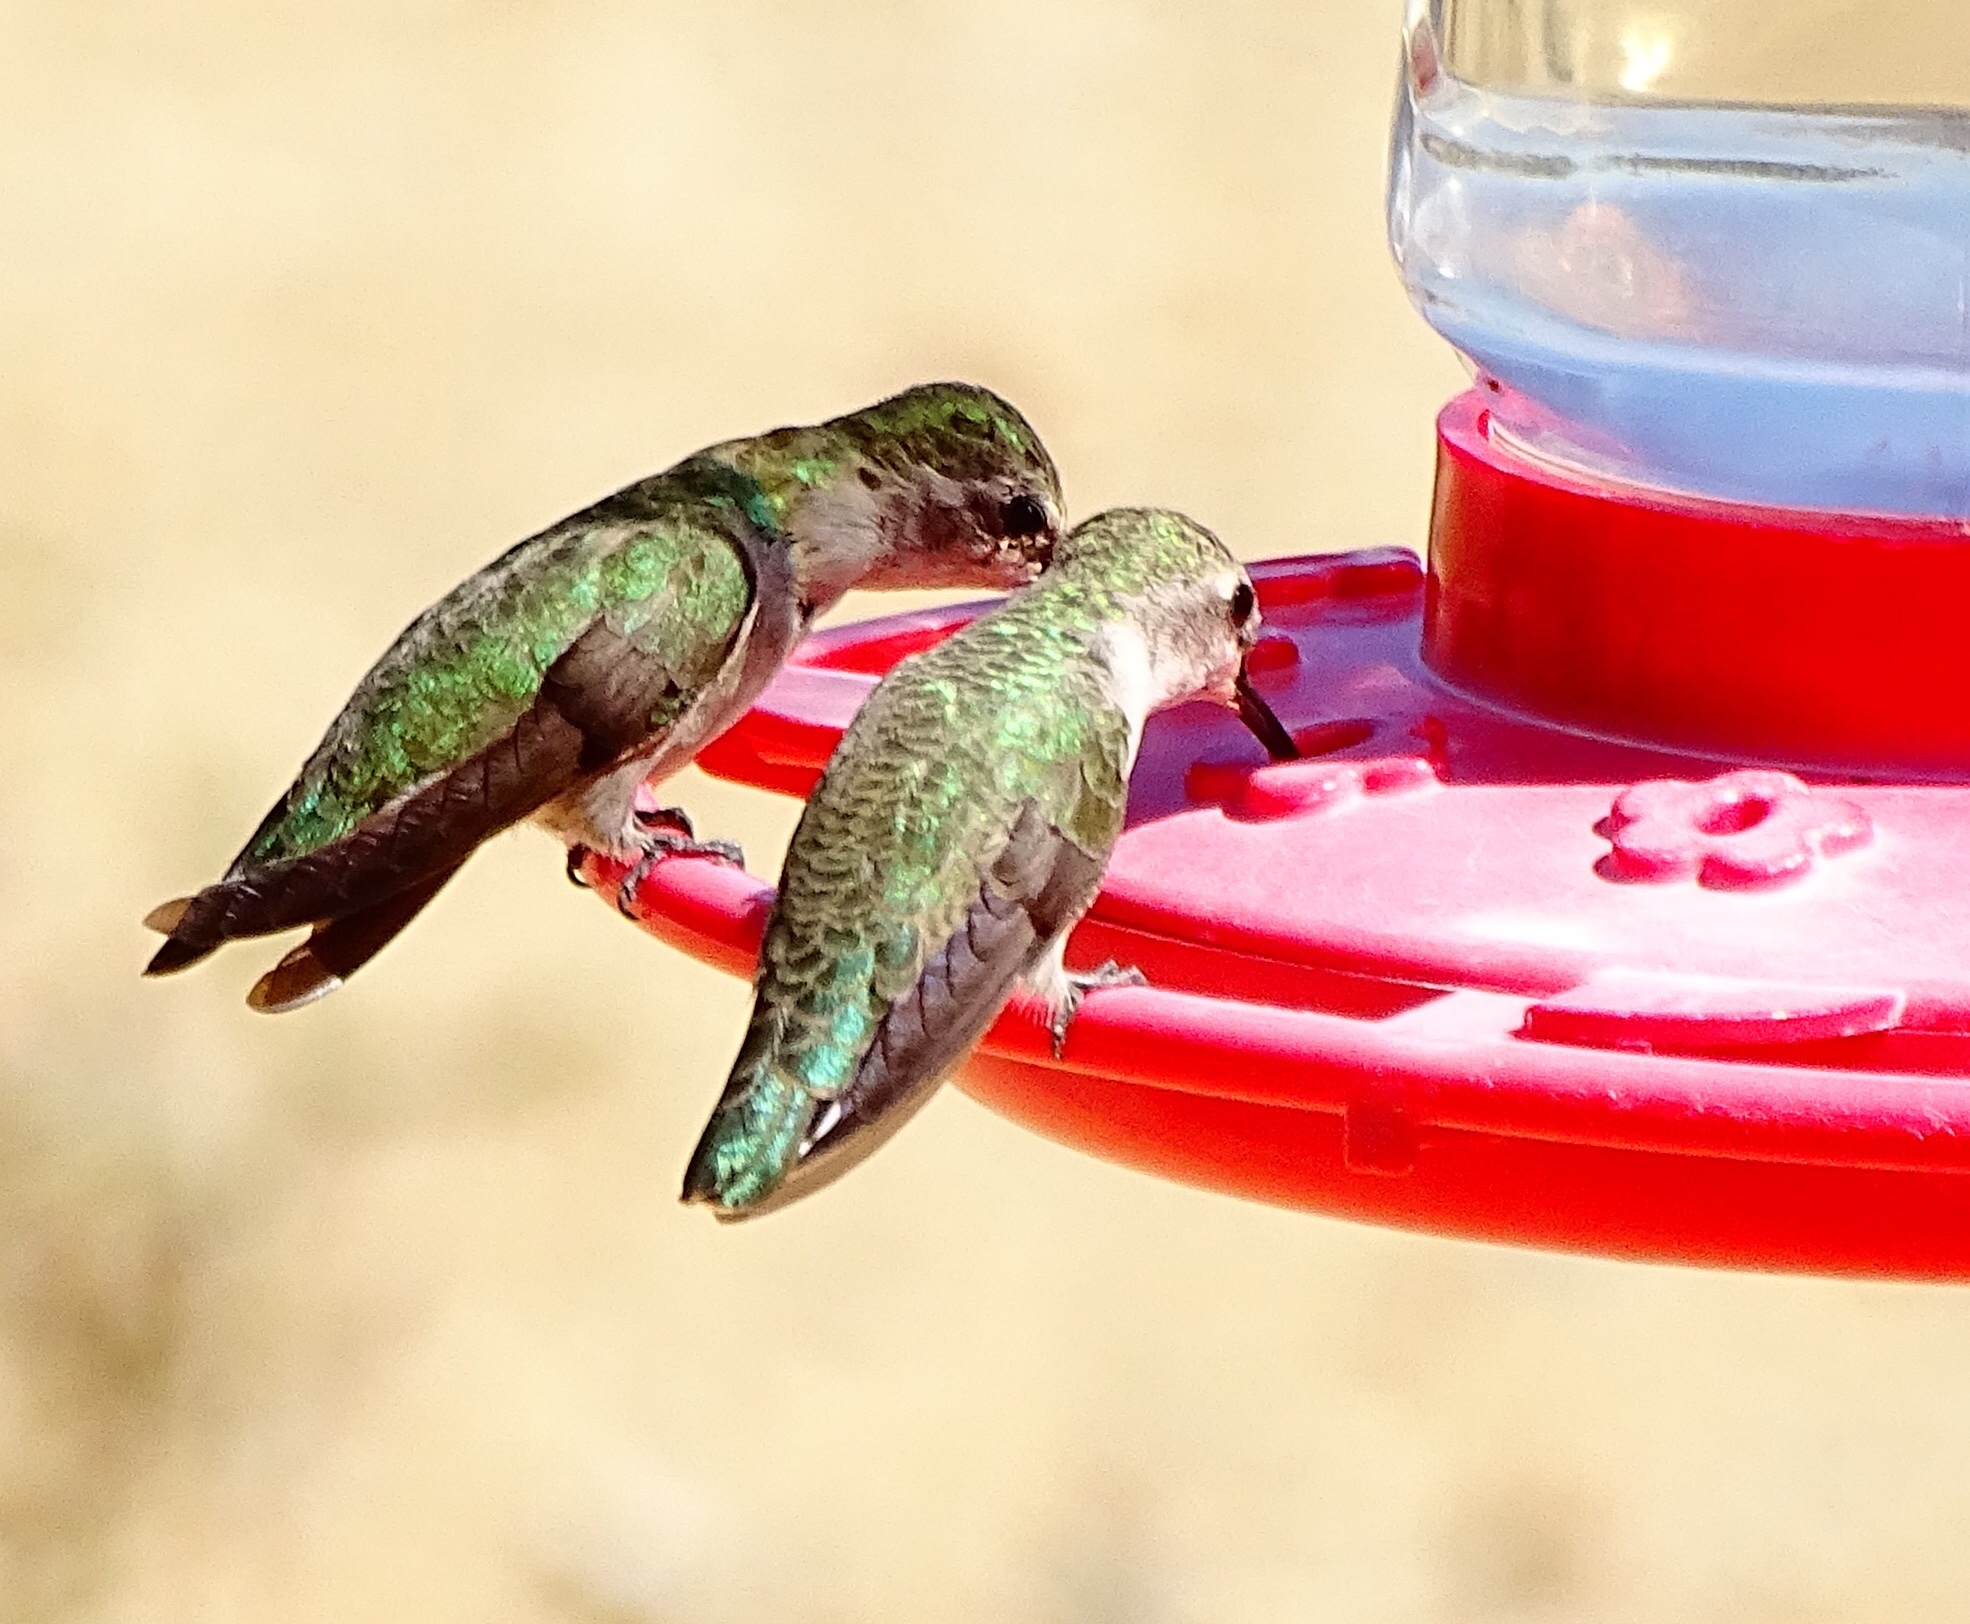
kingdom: Animalia
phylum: Chordata
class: Aves
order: Apodiformes
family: Trochilidae
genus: Calypte
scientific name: Calypte costae
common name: Costa's hummingbird
